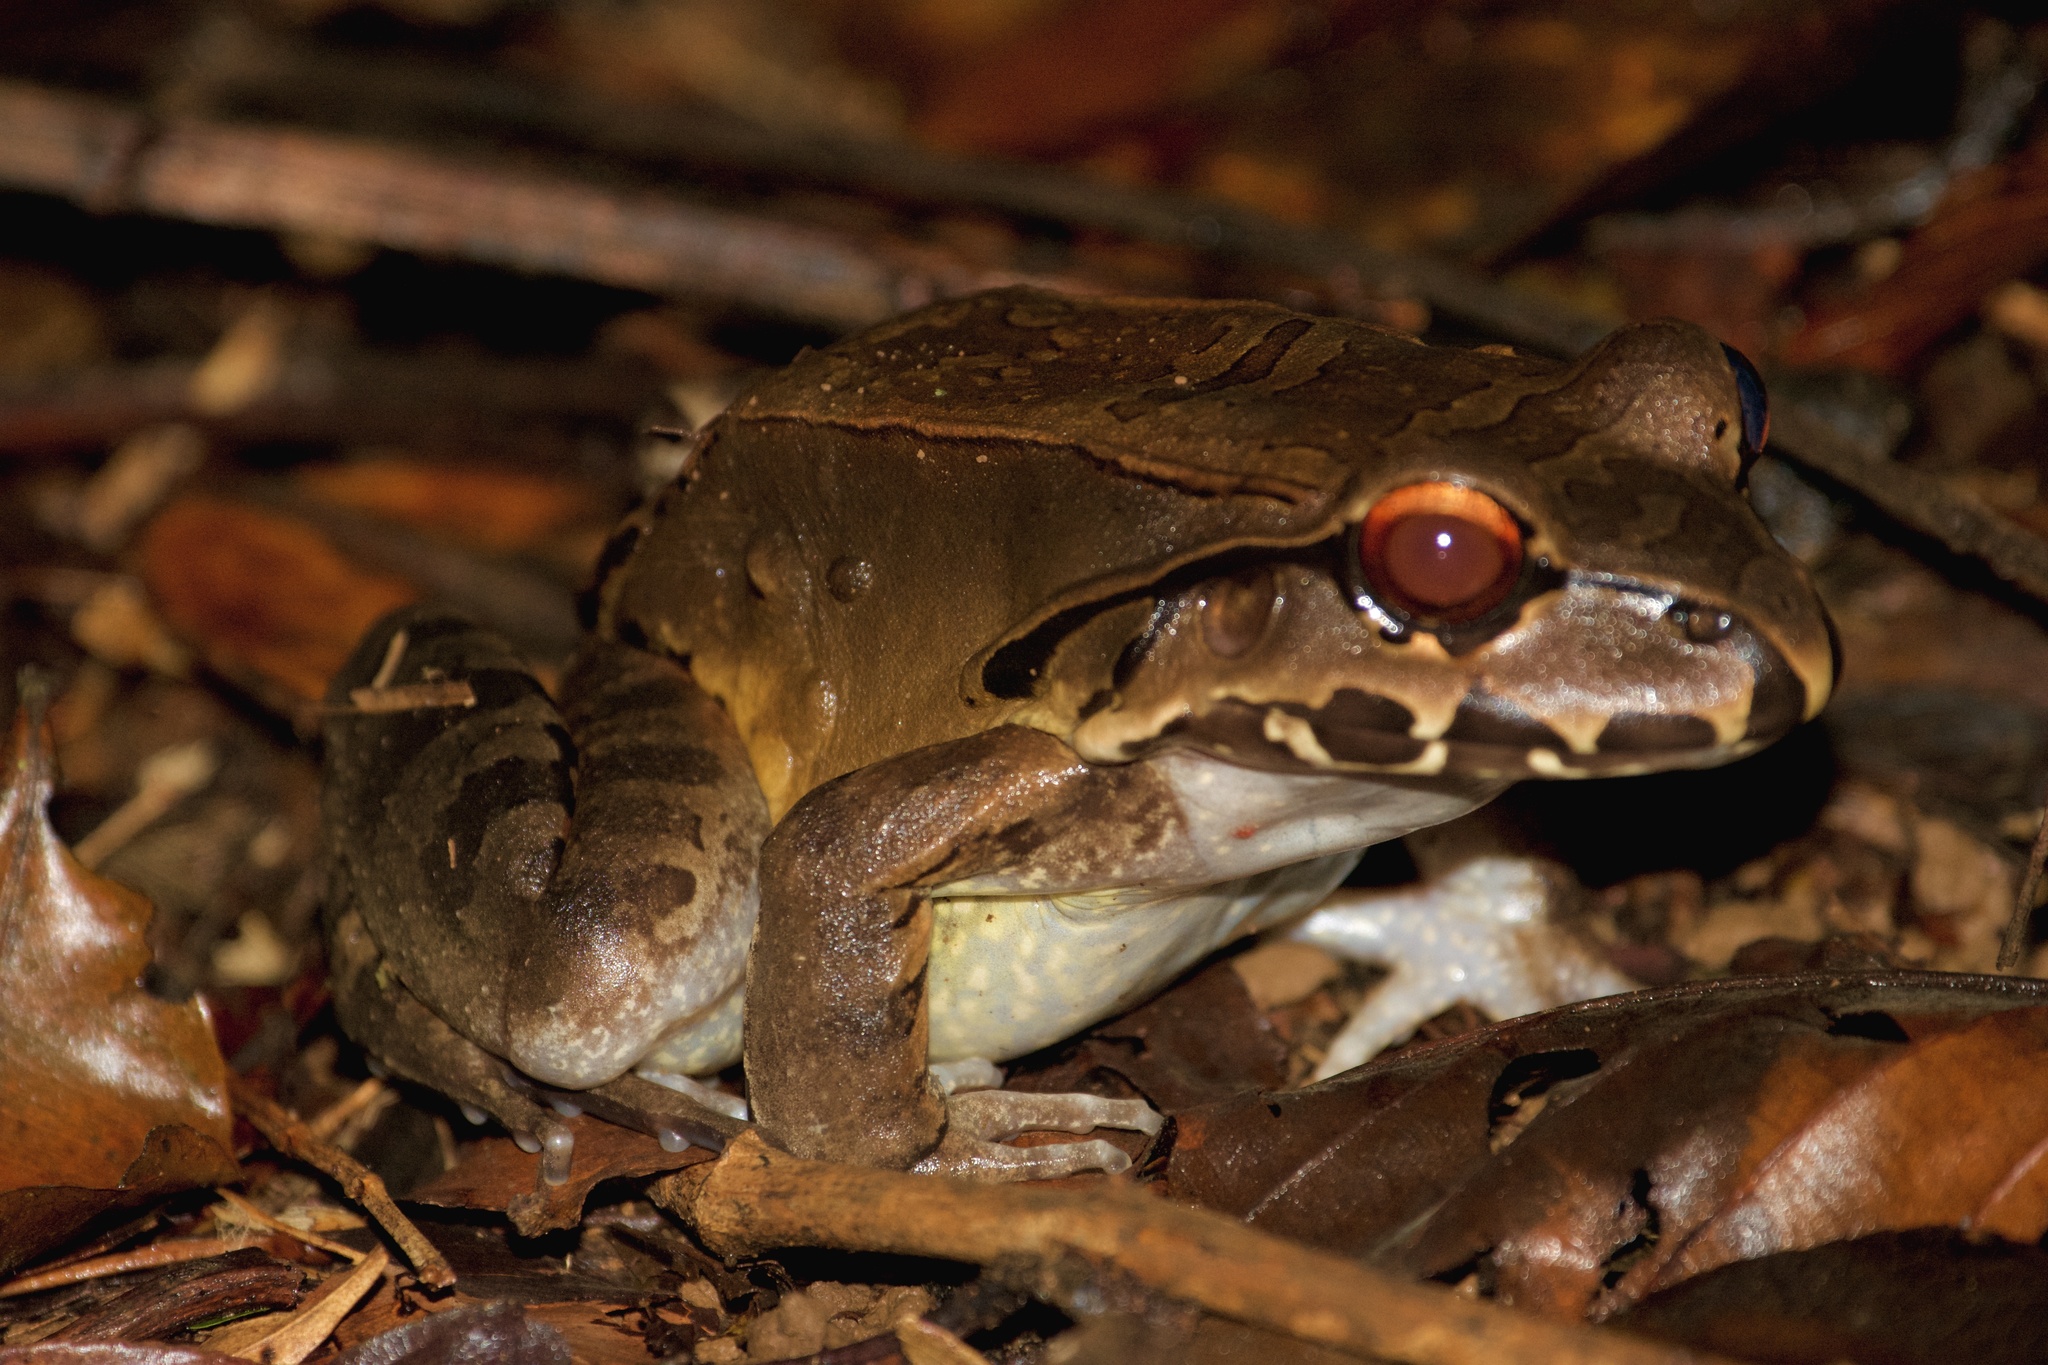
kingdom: Animalia
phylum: Chordata
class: Amphibia
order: Anura
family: Leptodactylidae
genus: Leptodactylus
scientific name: Leptodactylus savagei
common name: Savage's thin-toed frog
